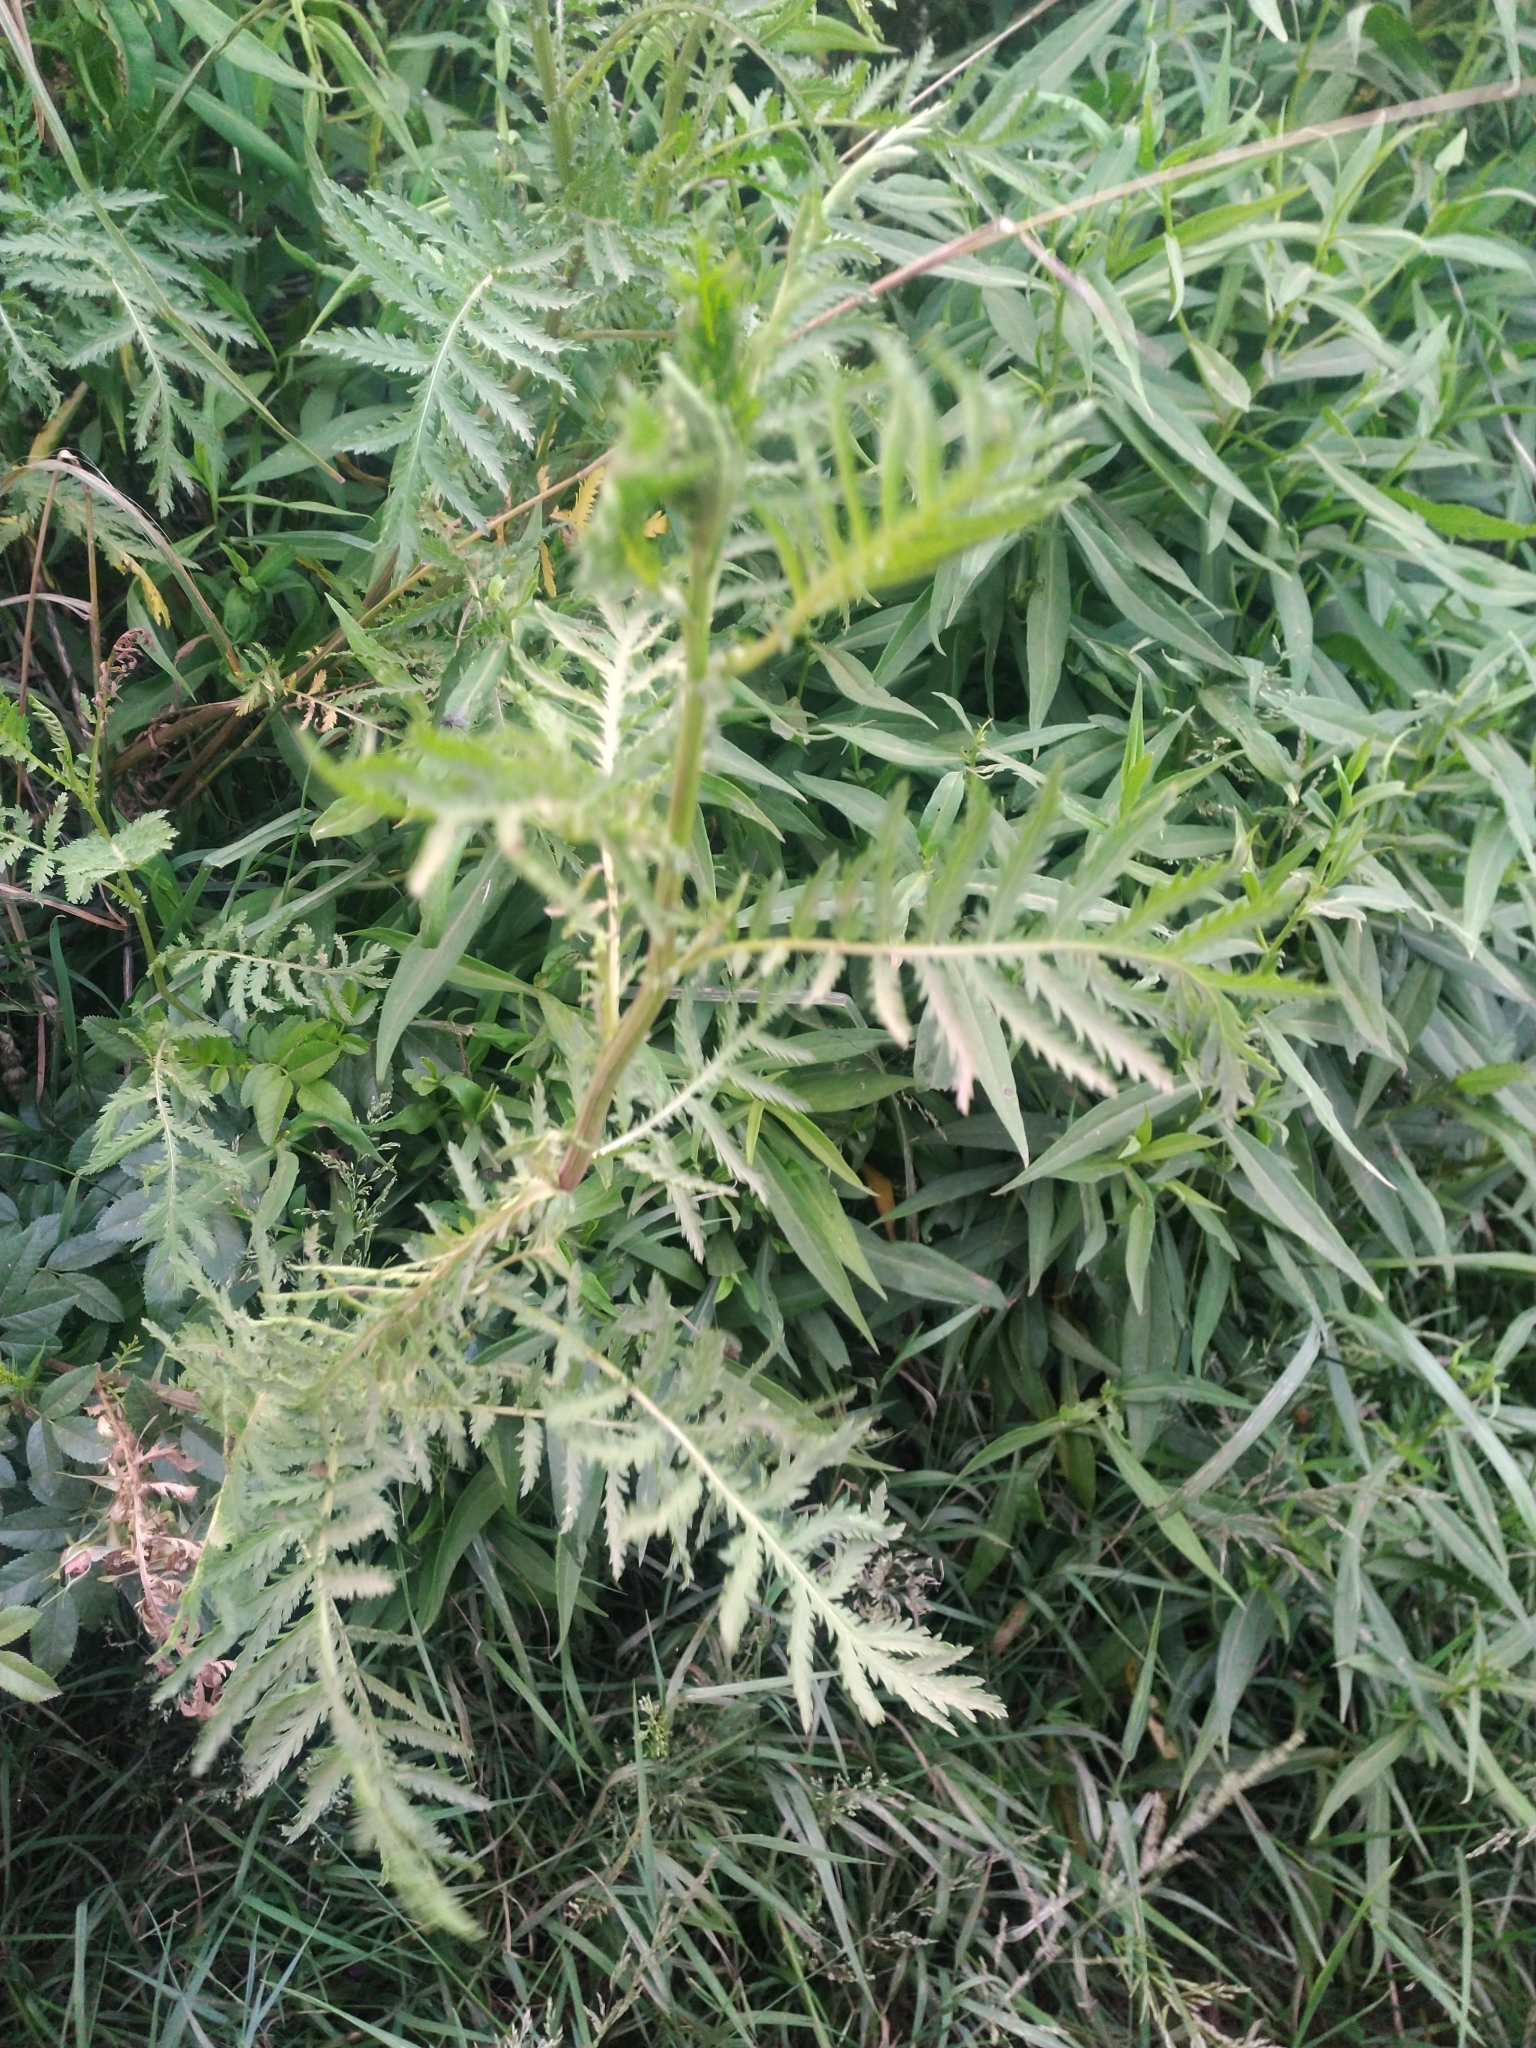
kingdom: Plantae
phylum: Tracheophyta
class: Magnoliopsida
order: Asterales
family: Asteraceae
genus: Tanacetum
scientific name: Tanacetum vulgare
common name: Common tansy
